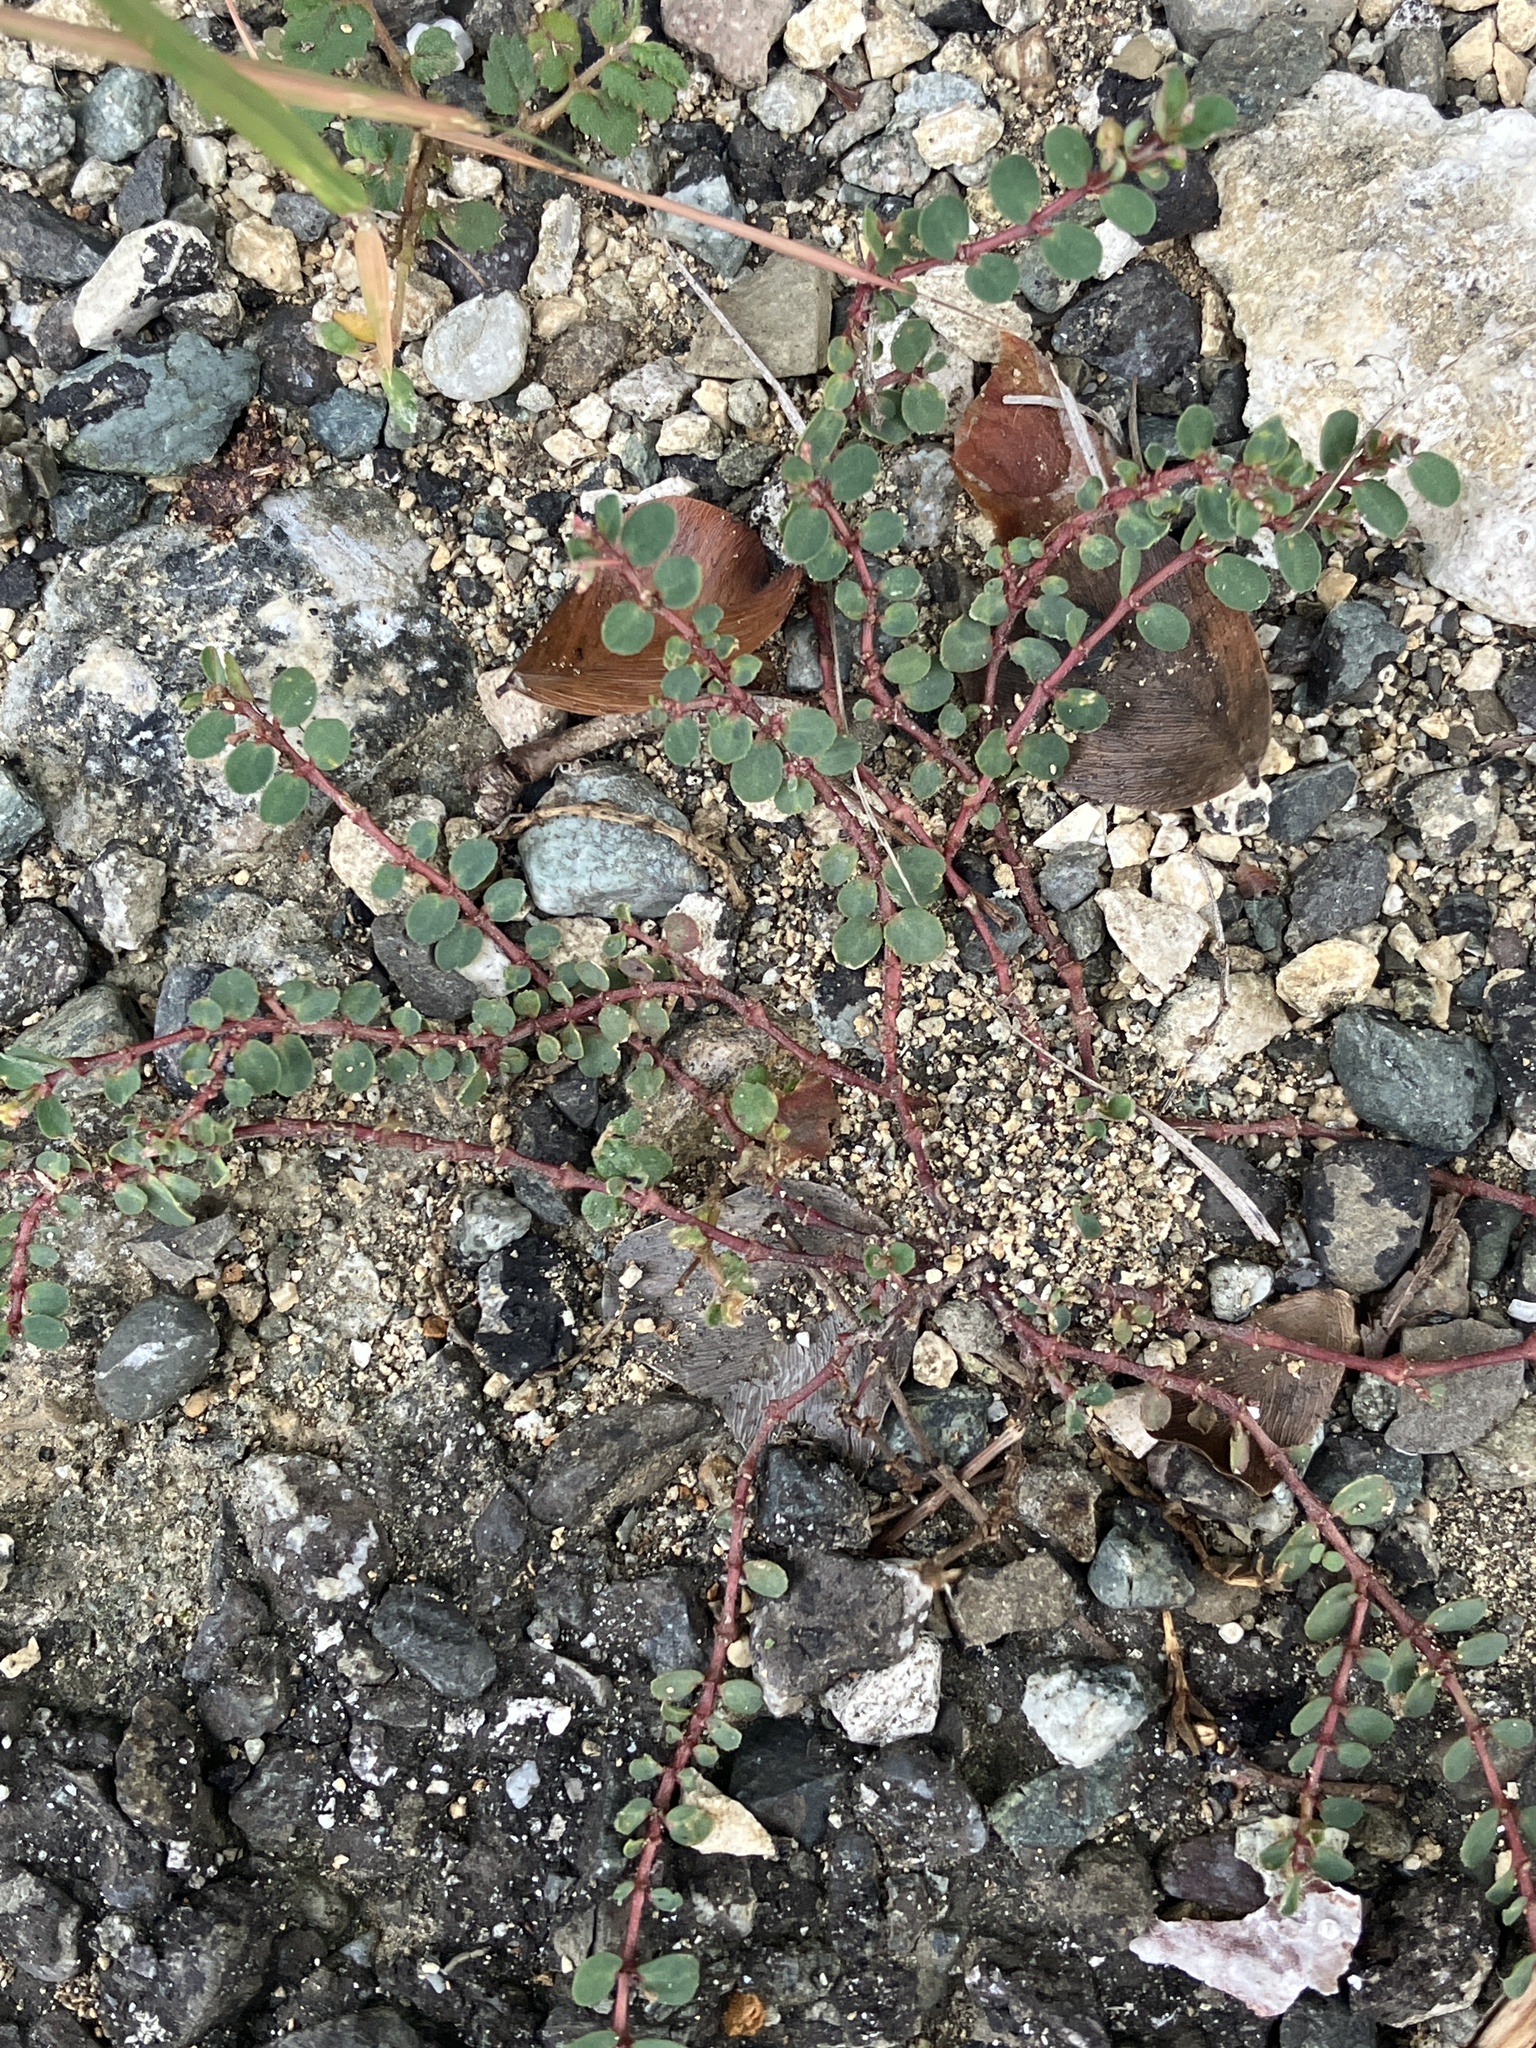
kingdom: Plantae
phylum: Tracheophyta
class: Magnoliopsida
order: Malpighiales
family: Euphorbiaceae
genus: Euphorbia
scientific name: Euphorbia prostrata
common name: Prostrate sandmat
